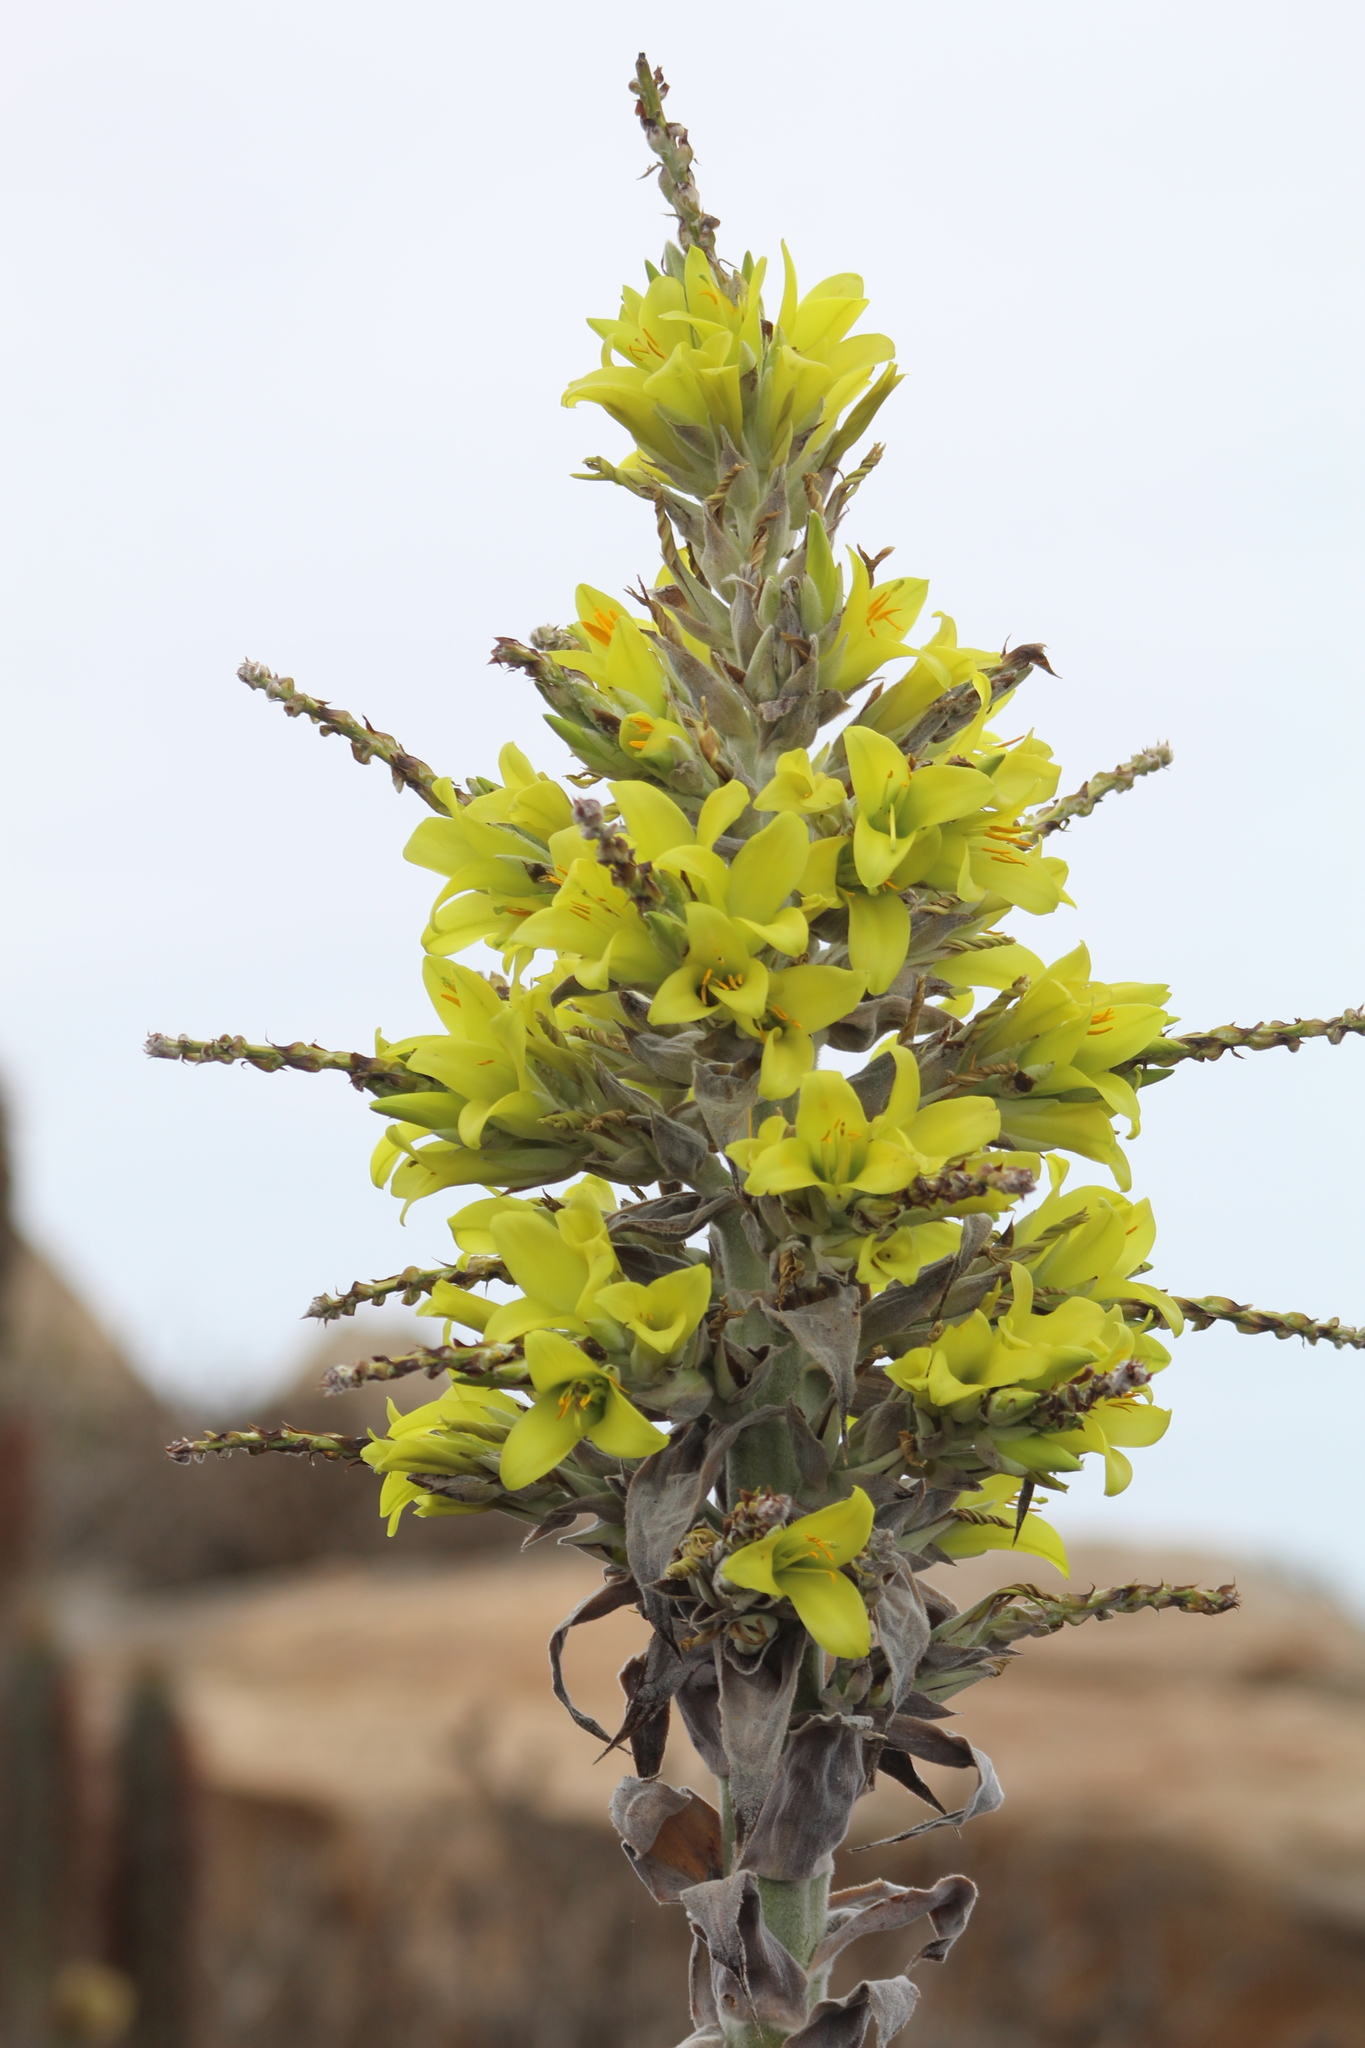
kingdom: Plantae
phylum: Tracheophyta
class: Liliopsida
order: Poales
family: Bromeliaceae
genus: Puya
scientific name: Puya chilensis
